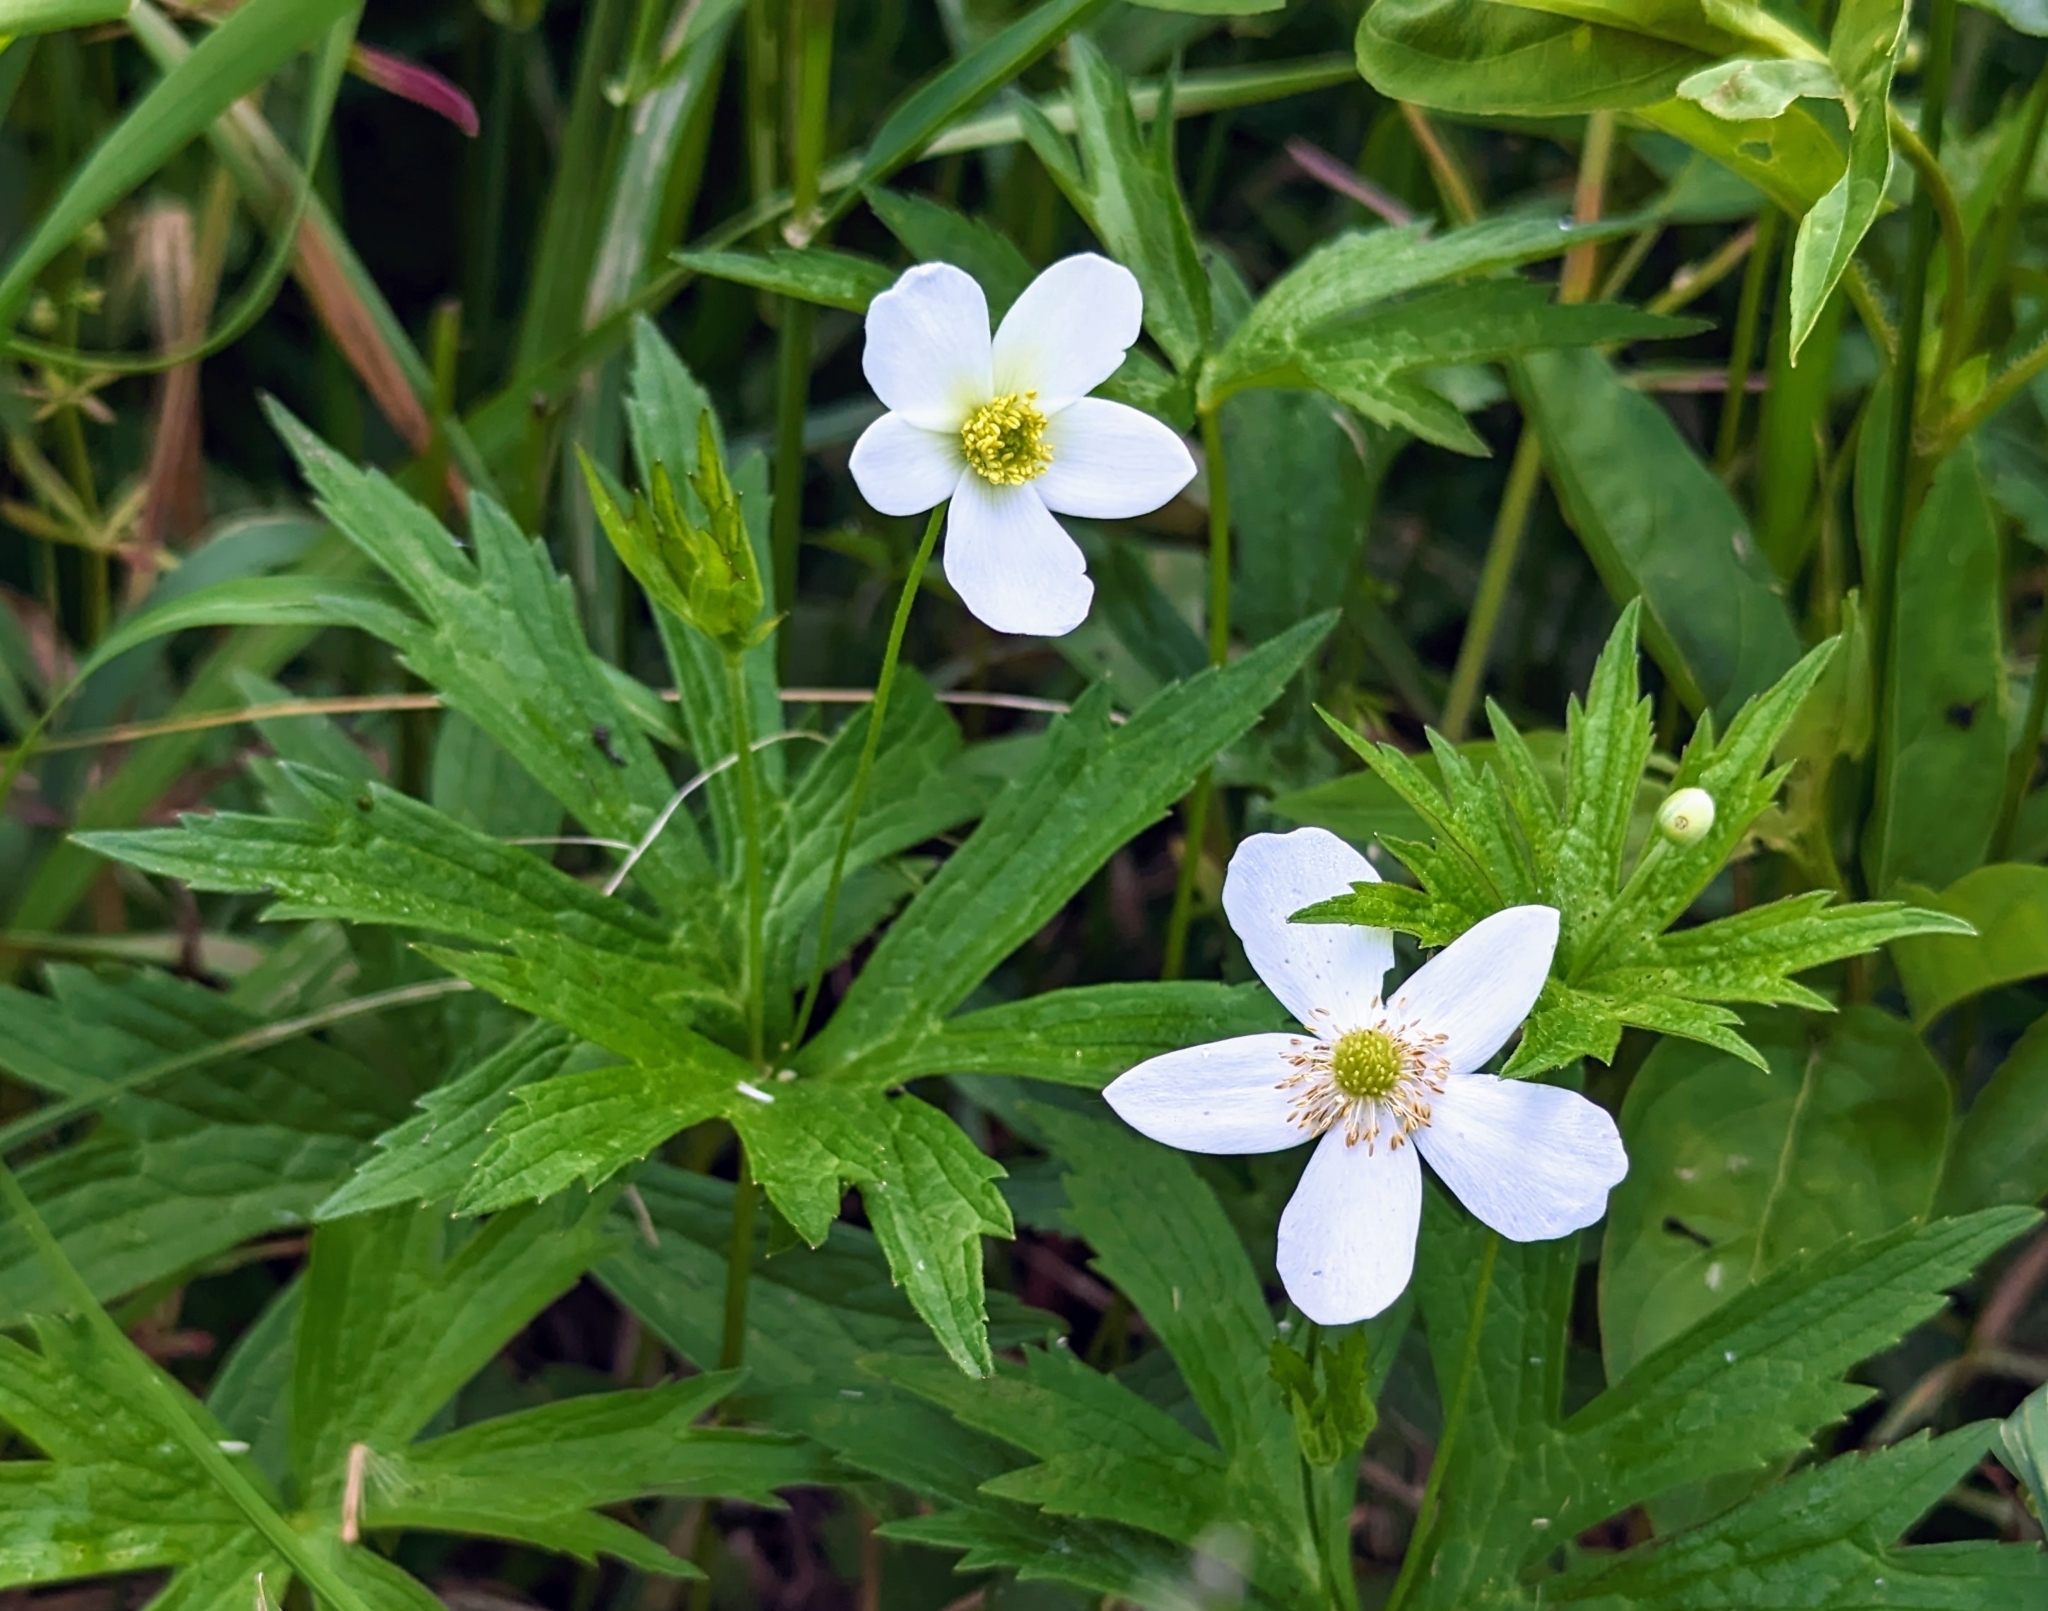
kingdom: Plantae
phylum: Tracheophyta
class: Magnoliopsida
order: Ranunculales
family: Ranunculaceae
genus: Anemonastrum
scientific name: Anemonastrum canadense
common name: Canada anemone
